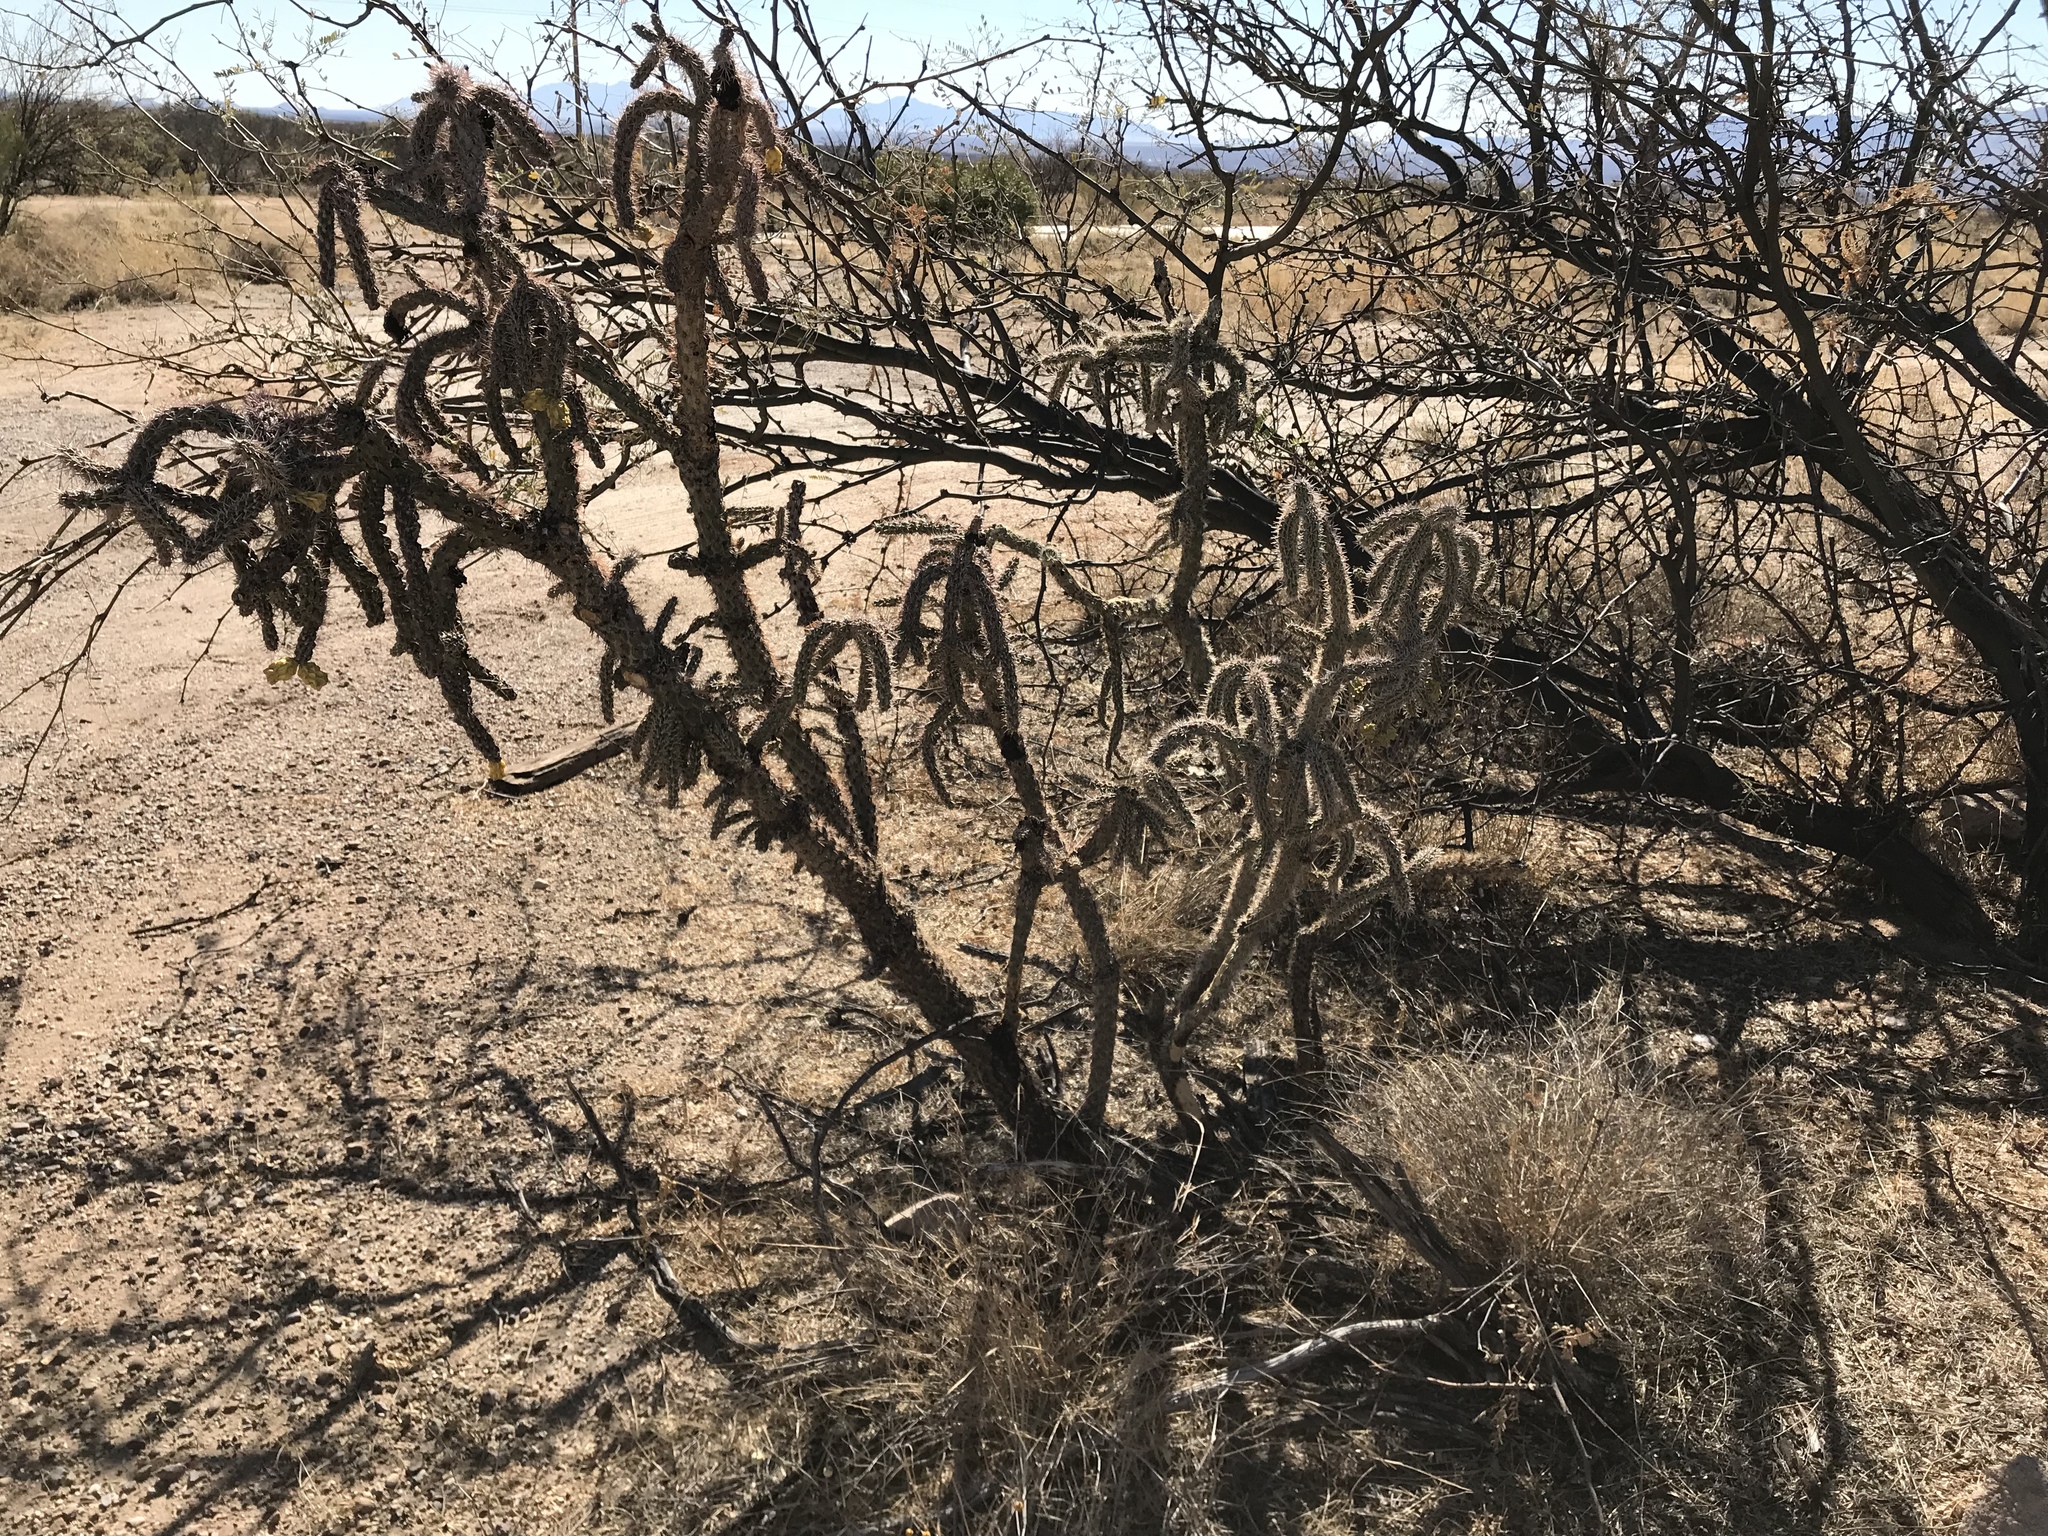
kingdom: Plantae
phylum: Tracheophyta
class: Magnoliopsida
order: Caryophyllales
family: Cactaceae
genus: Cylindropuntia
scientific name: Cylindropuntia imbricata
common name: Candelabrum cactus
